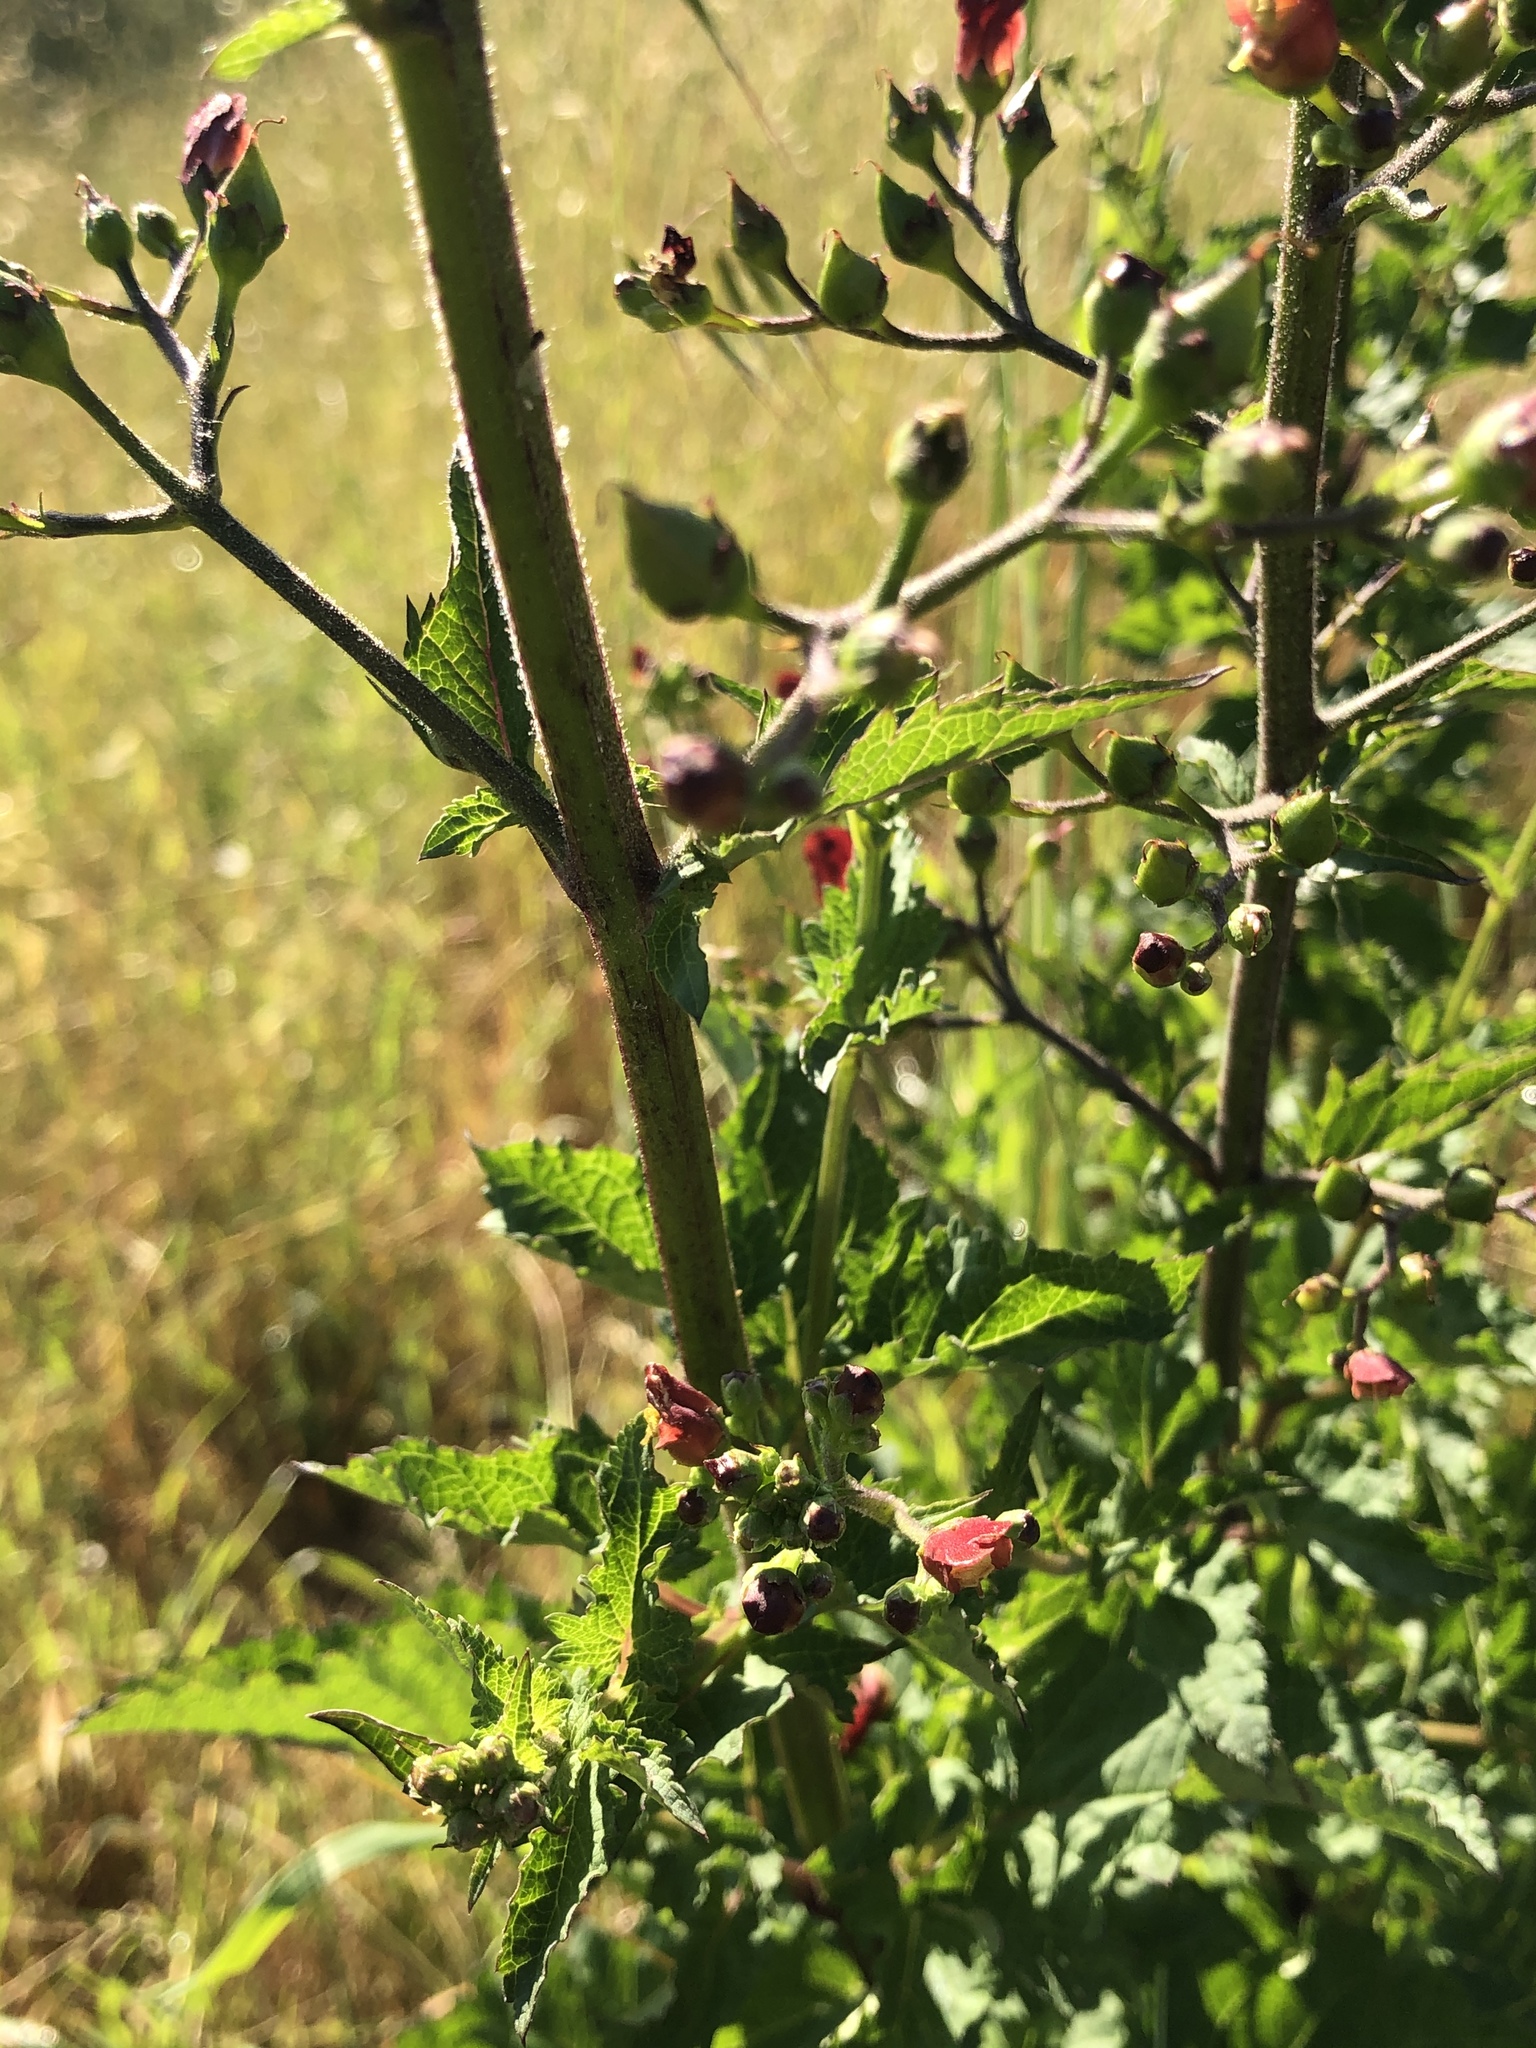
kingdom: Plantae
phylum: Tracheophyta
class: Magnoliopsida
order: Lamiales
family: Scrophulariaceae
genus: Scrophularia
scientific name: Scrophularia californica
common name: California figwort
